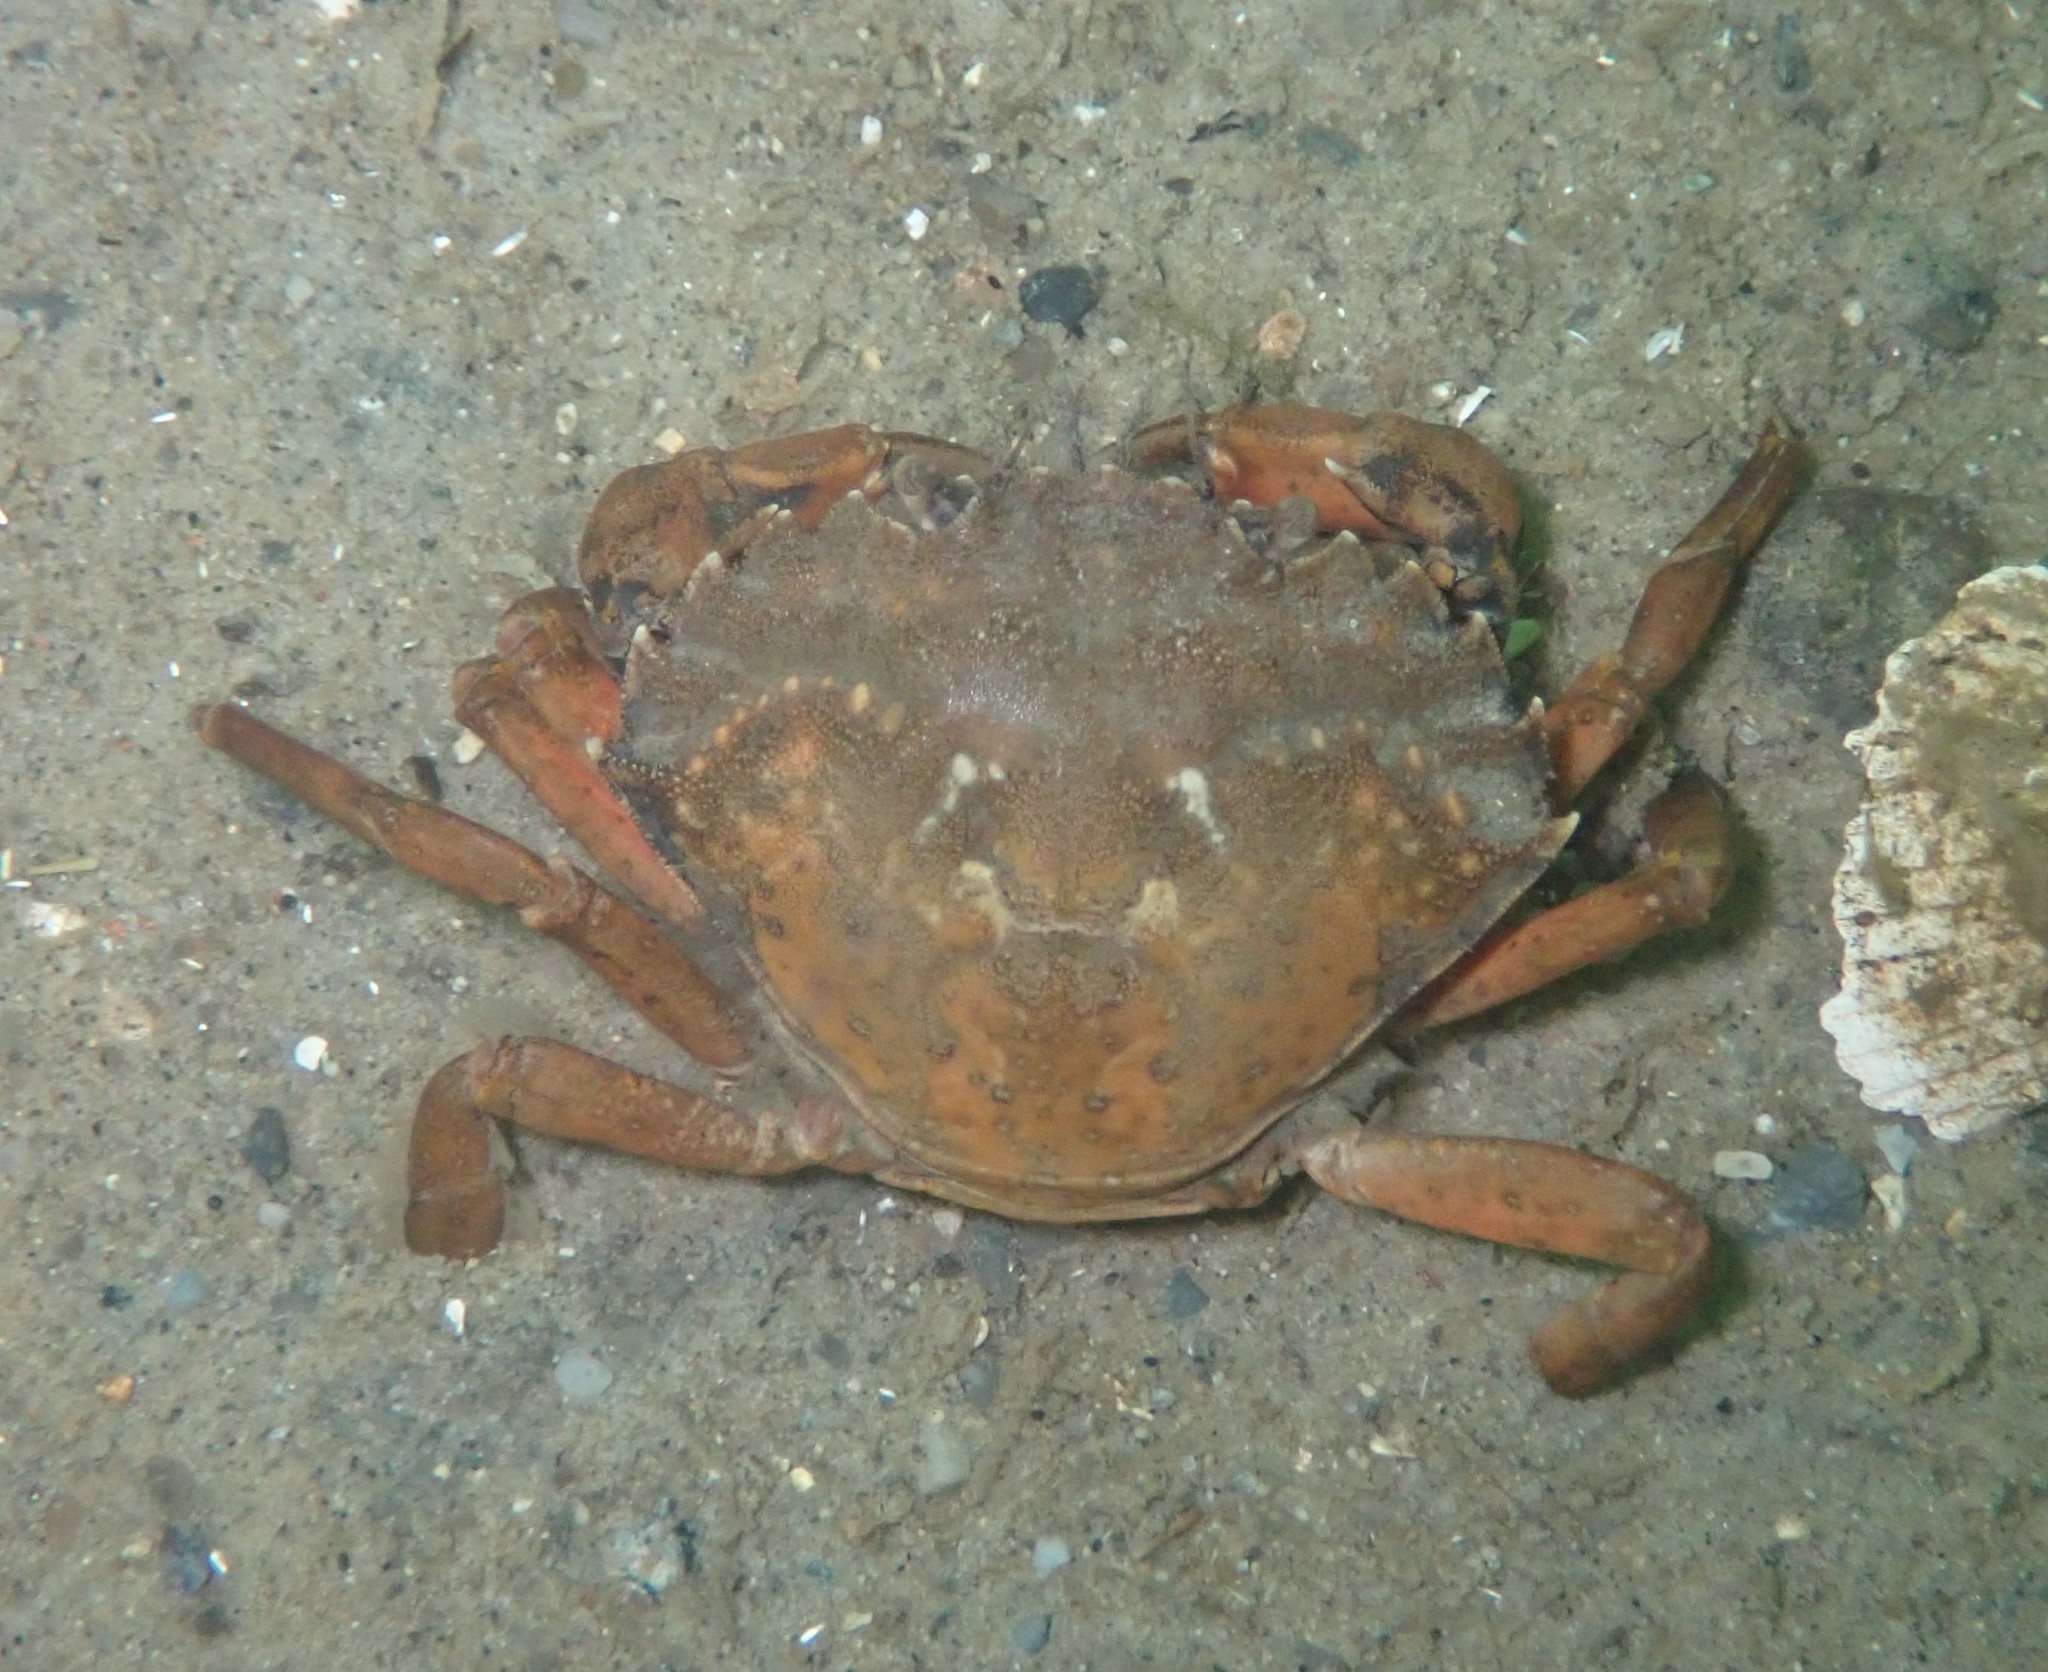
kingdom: Animalia
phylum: Arthropoda
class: Malacostraca
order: Decapoda
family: Carcinidae
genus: Carcinus
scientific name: Carcinus maenas
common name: European green crab
